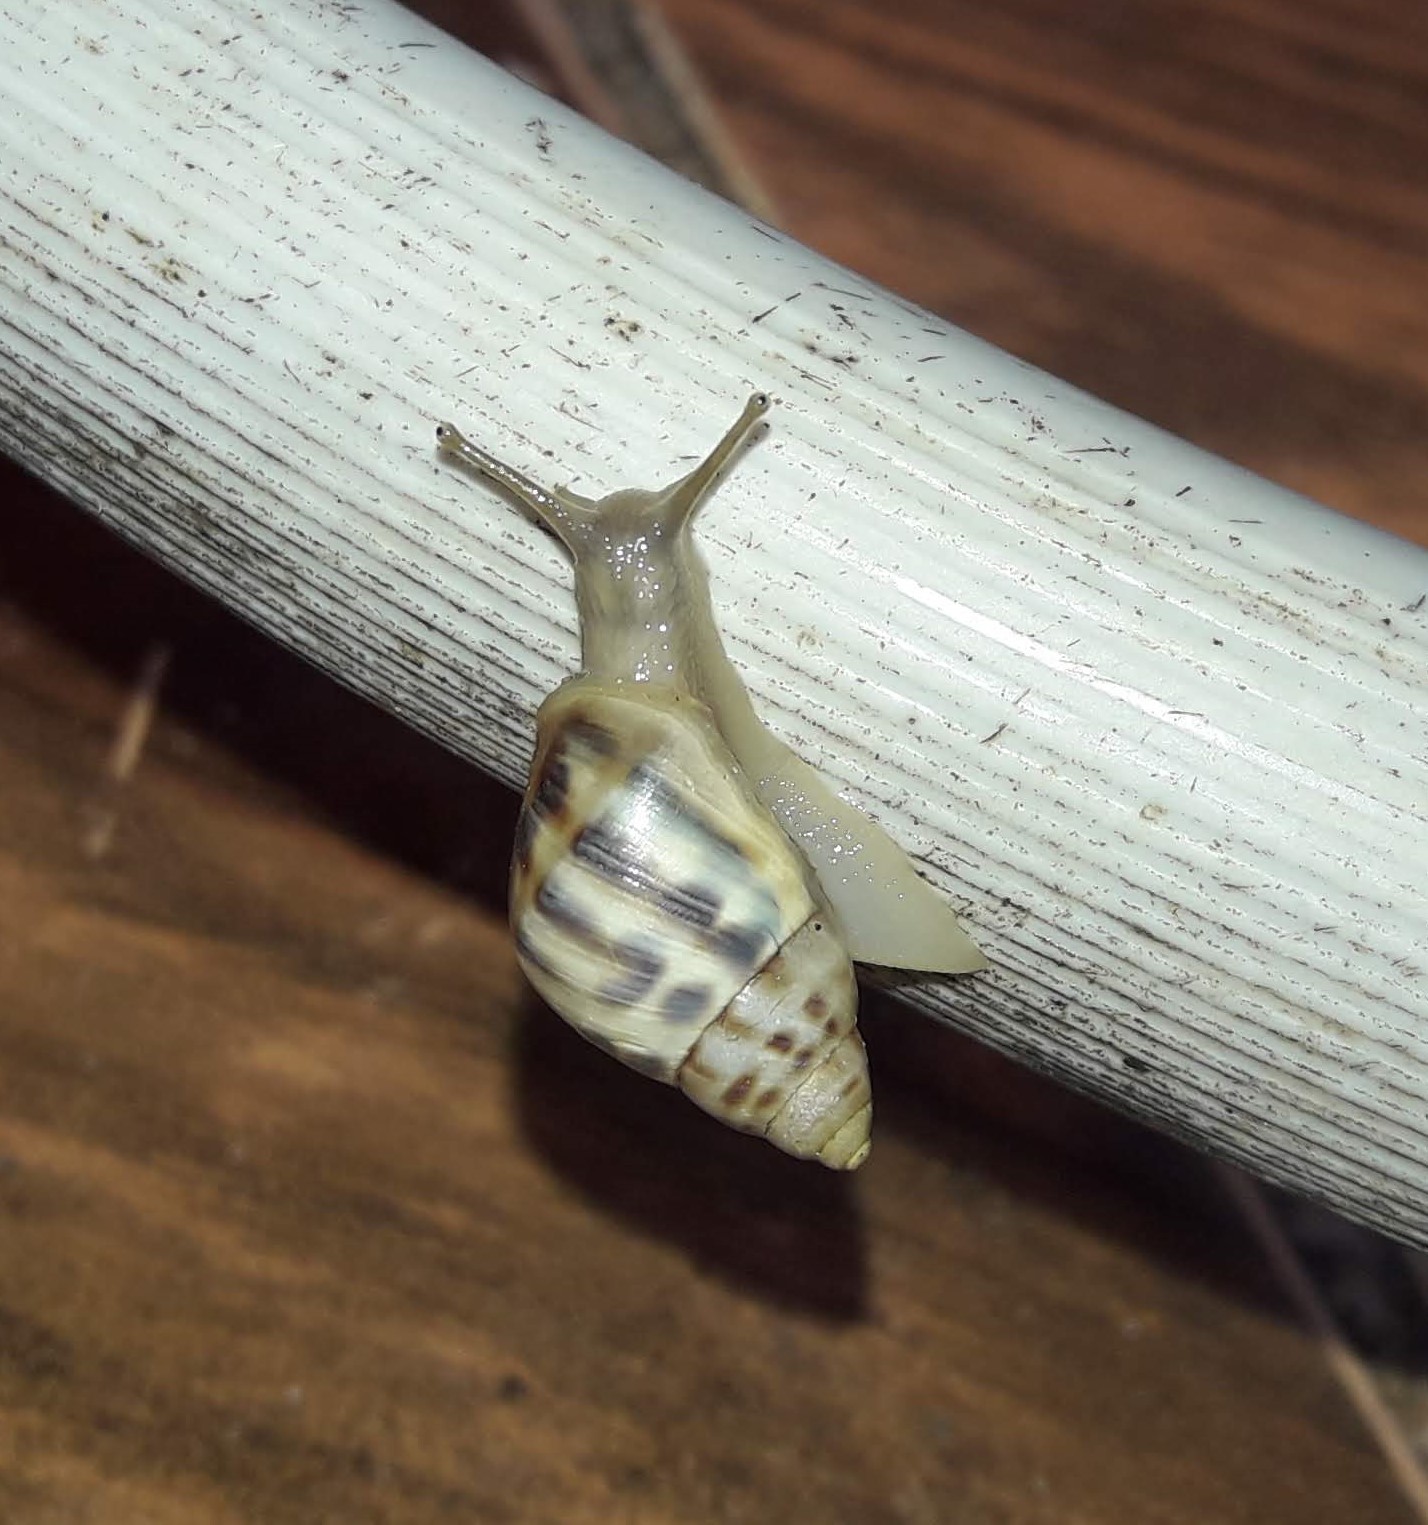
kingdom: Animalia
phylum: Mollusca
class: Gastropoda
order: Stylommatophora
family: Bulimulidae
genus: Drymaeus
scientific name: Drymaeus serperastrum
